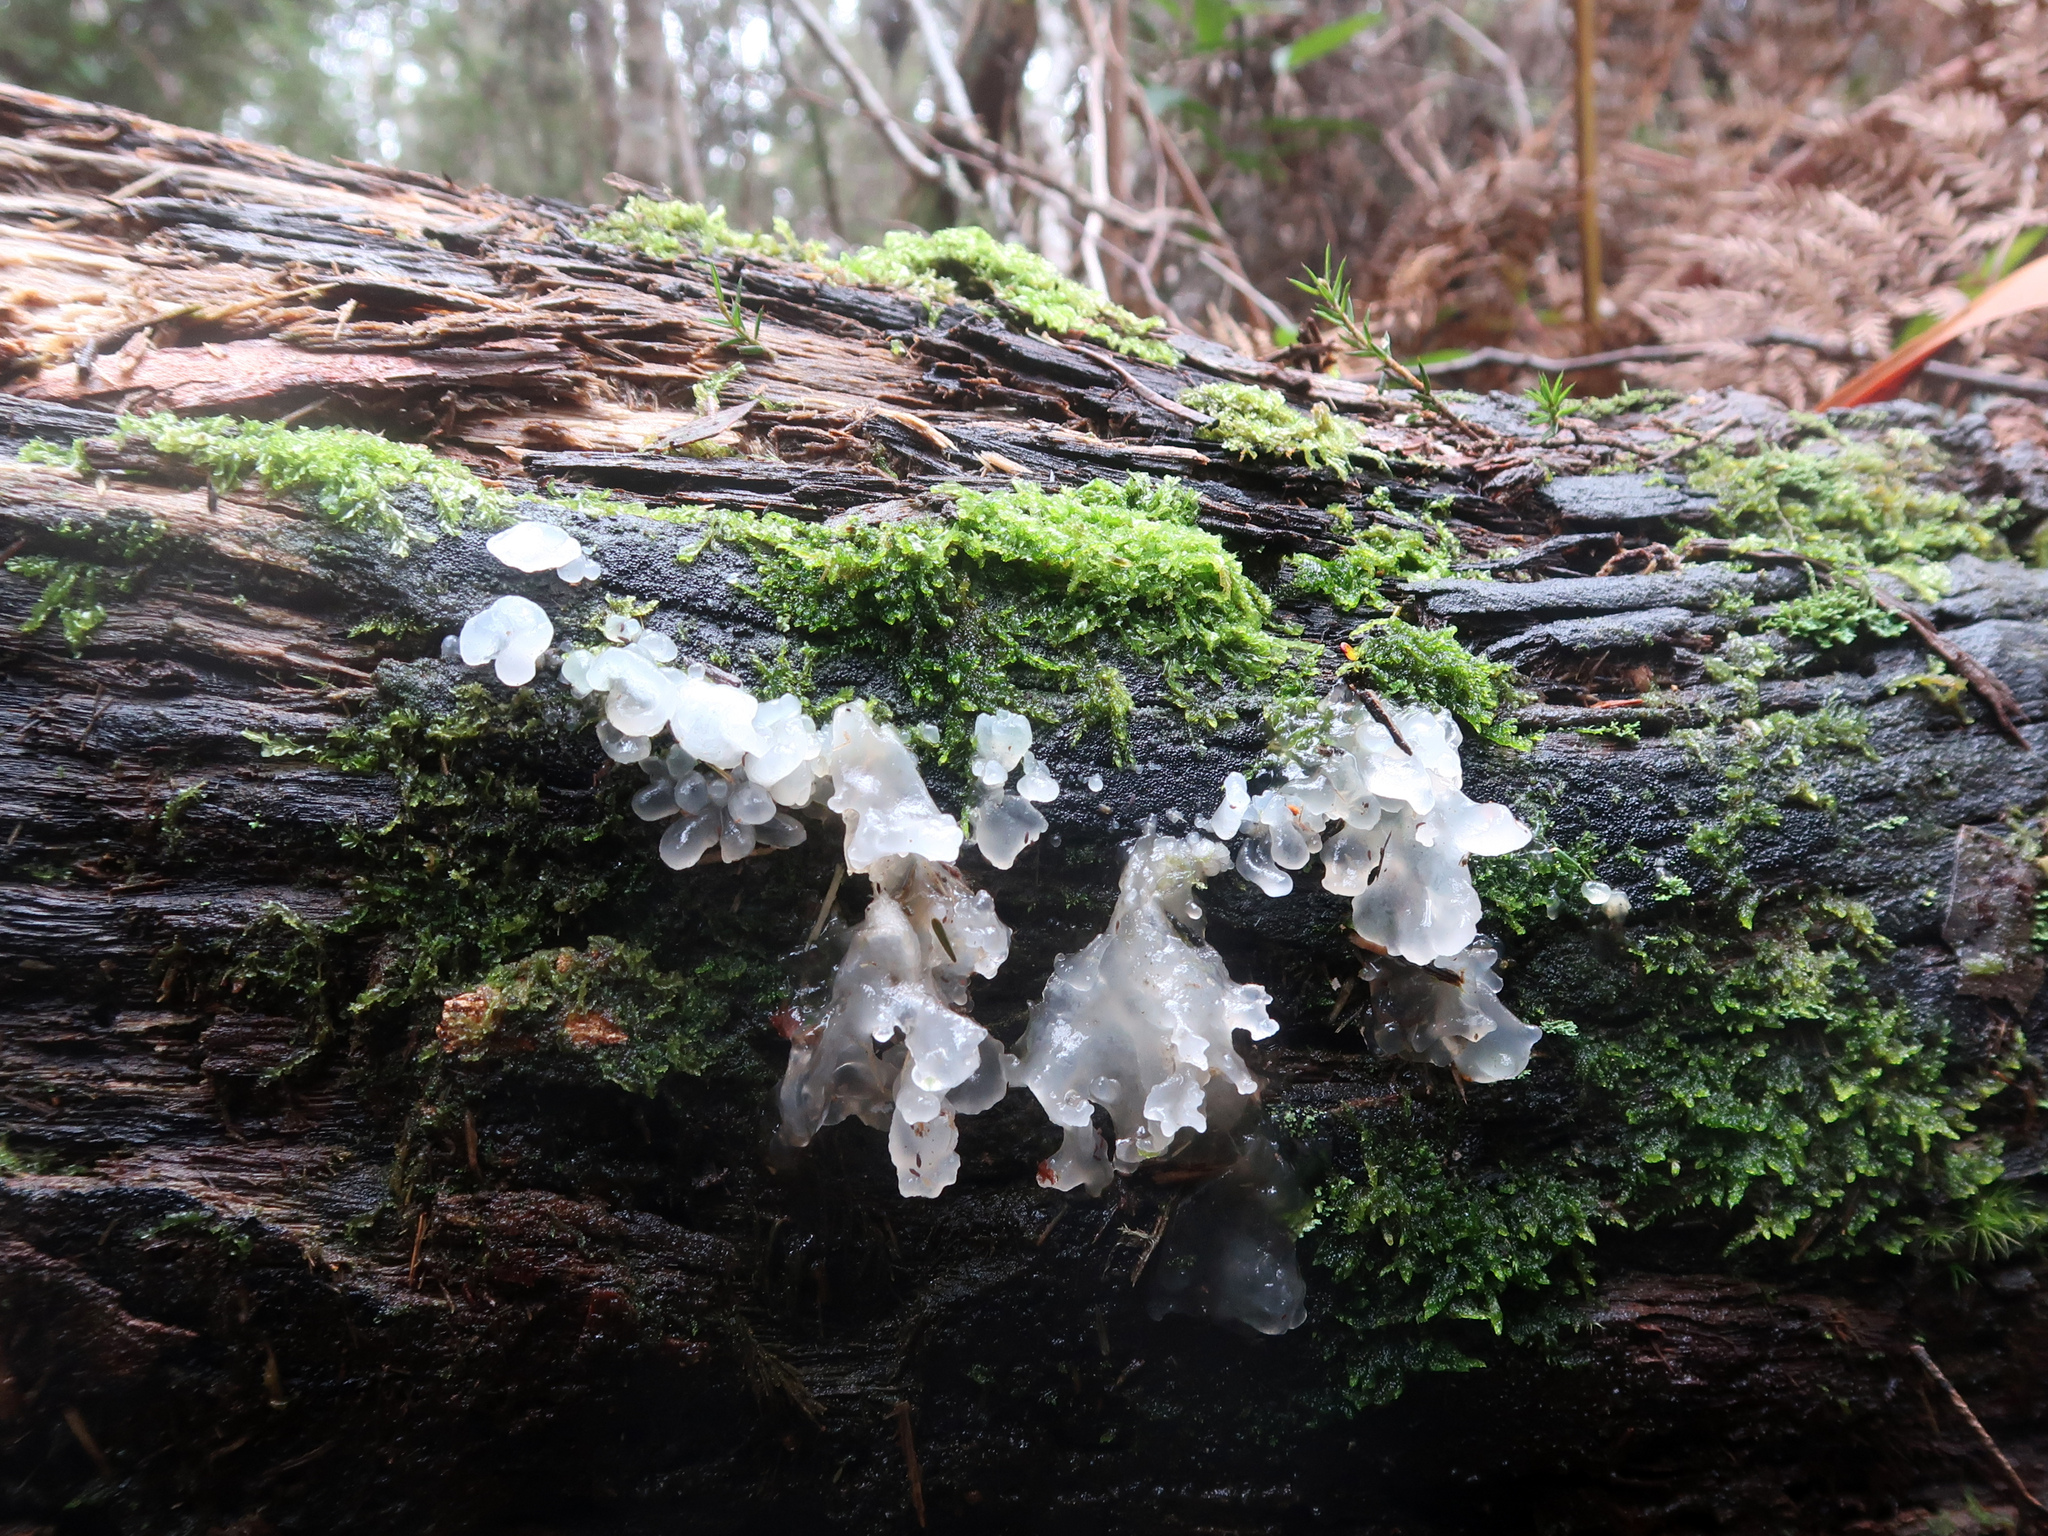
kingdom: Fungi
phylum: Basidiomycota
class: Tremellomycetes
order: Tremellales
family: Tremellaceae
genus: Tremella
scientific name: Tremella fuciformis
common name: Snow fungus
